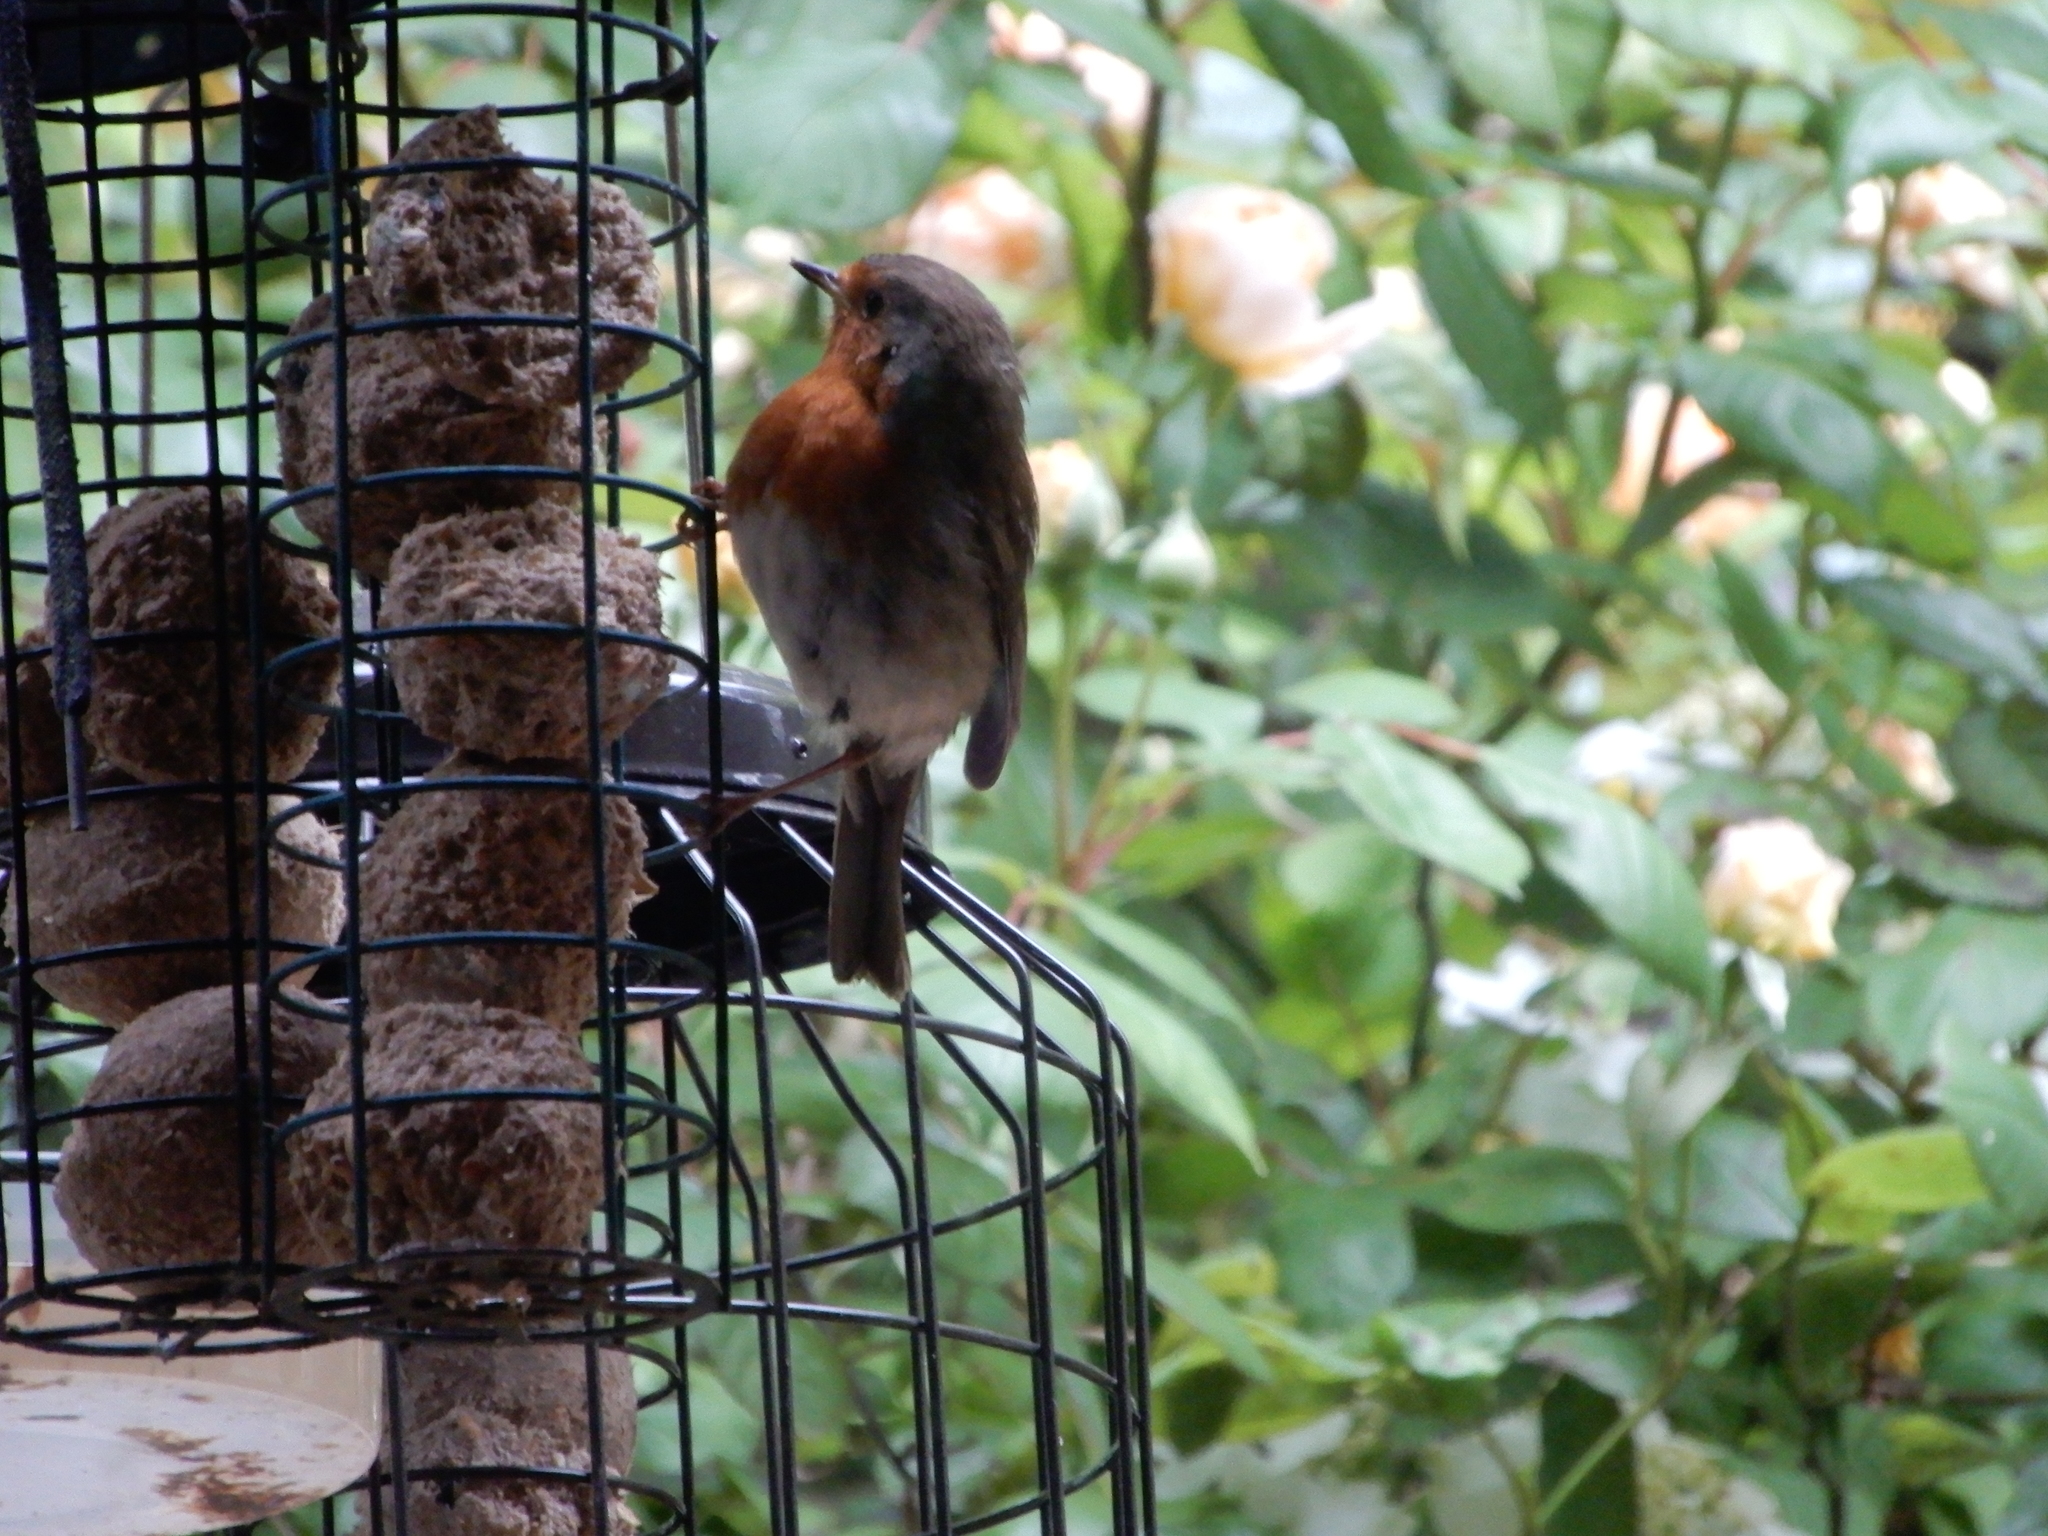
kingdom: Animalia
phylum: Chordata
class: Aves
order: Passeriformes
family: Muscicapidae
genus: Erithacus
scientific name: Erithacus rubecula
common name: European robin
